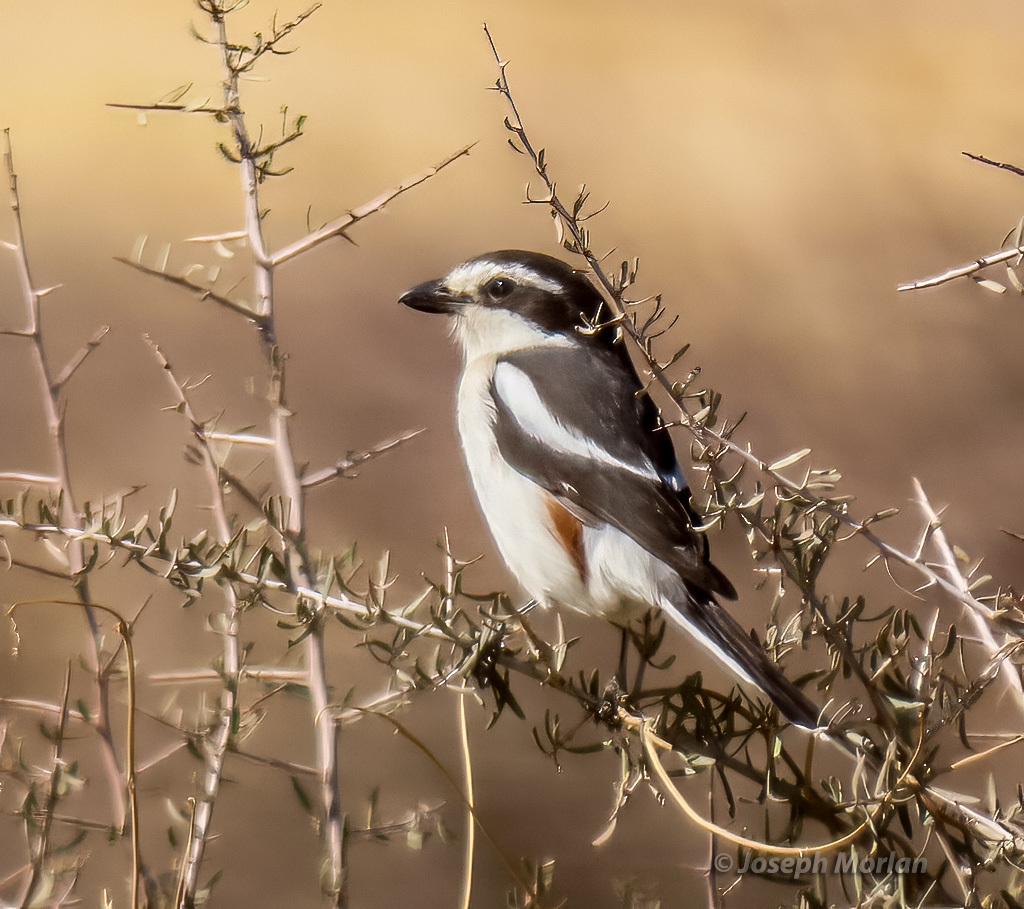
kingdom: Animalia
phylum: Chordata
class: Aves
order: Passeriformes
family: Laniidae
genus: Lanius
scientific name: Lanius collaris
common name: Southern fiscal
